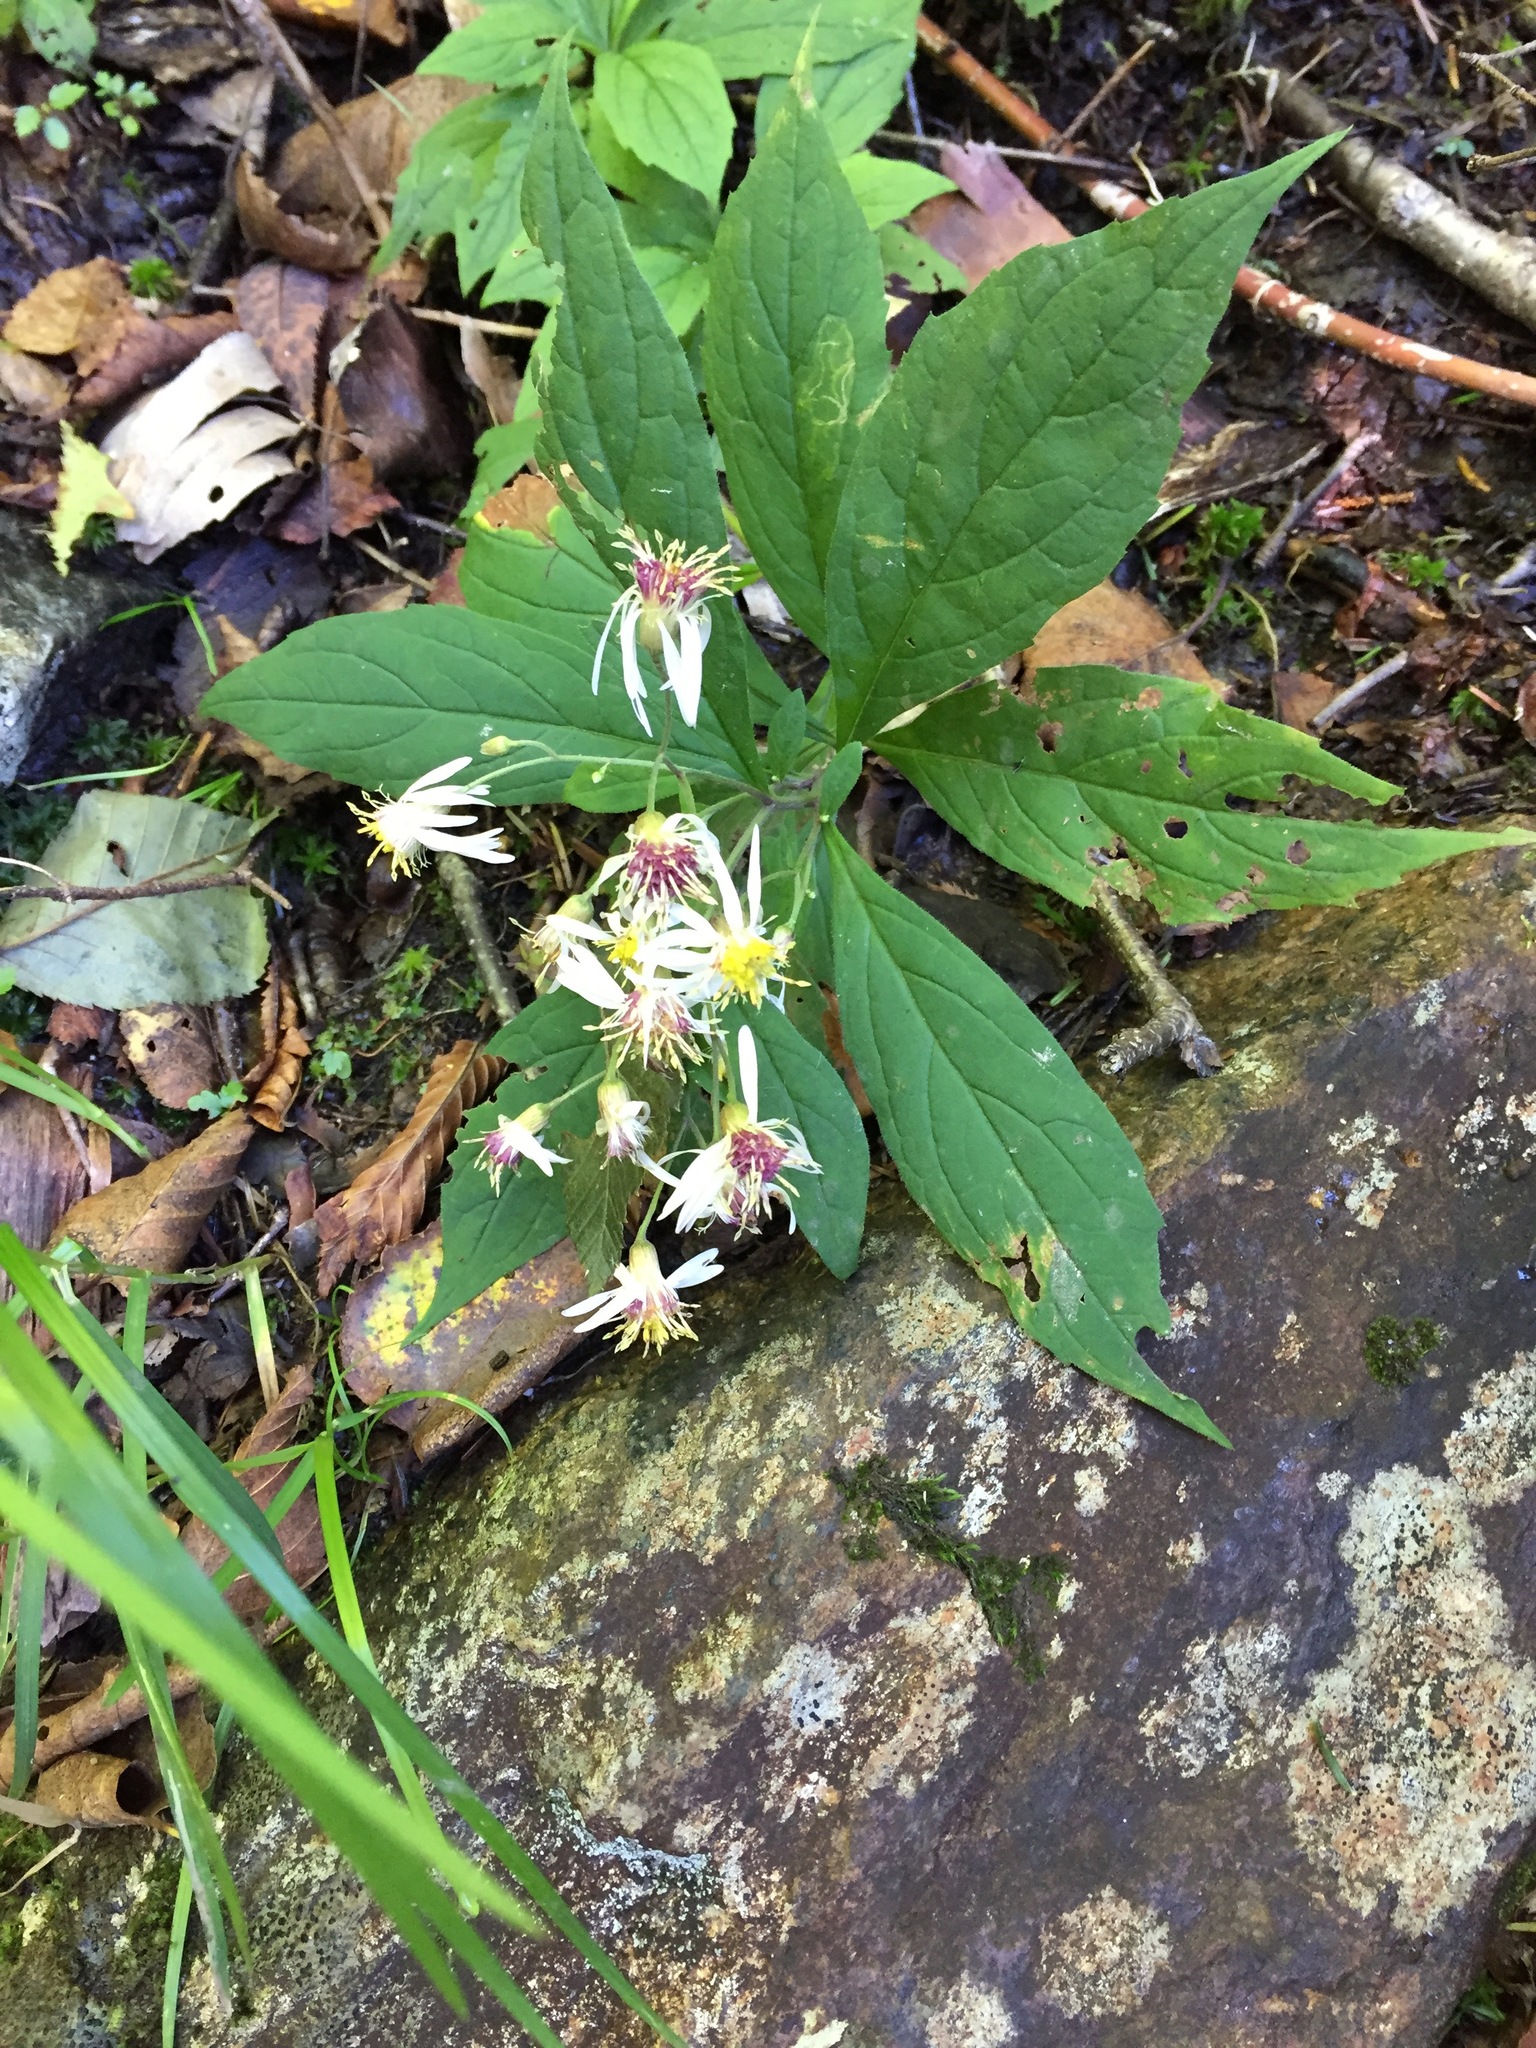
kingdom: Plantae
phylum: Tracheophyta
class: Magnoliopsida
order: Asterales
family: Asteraceae
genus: Oclemena
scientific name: Oclemena acuminata
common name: Mountain aster
